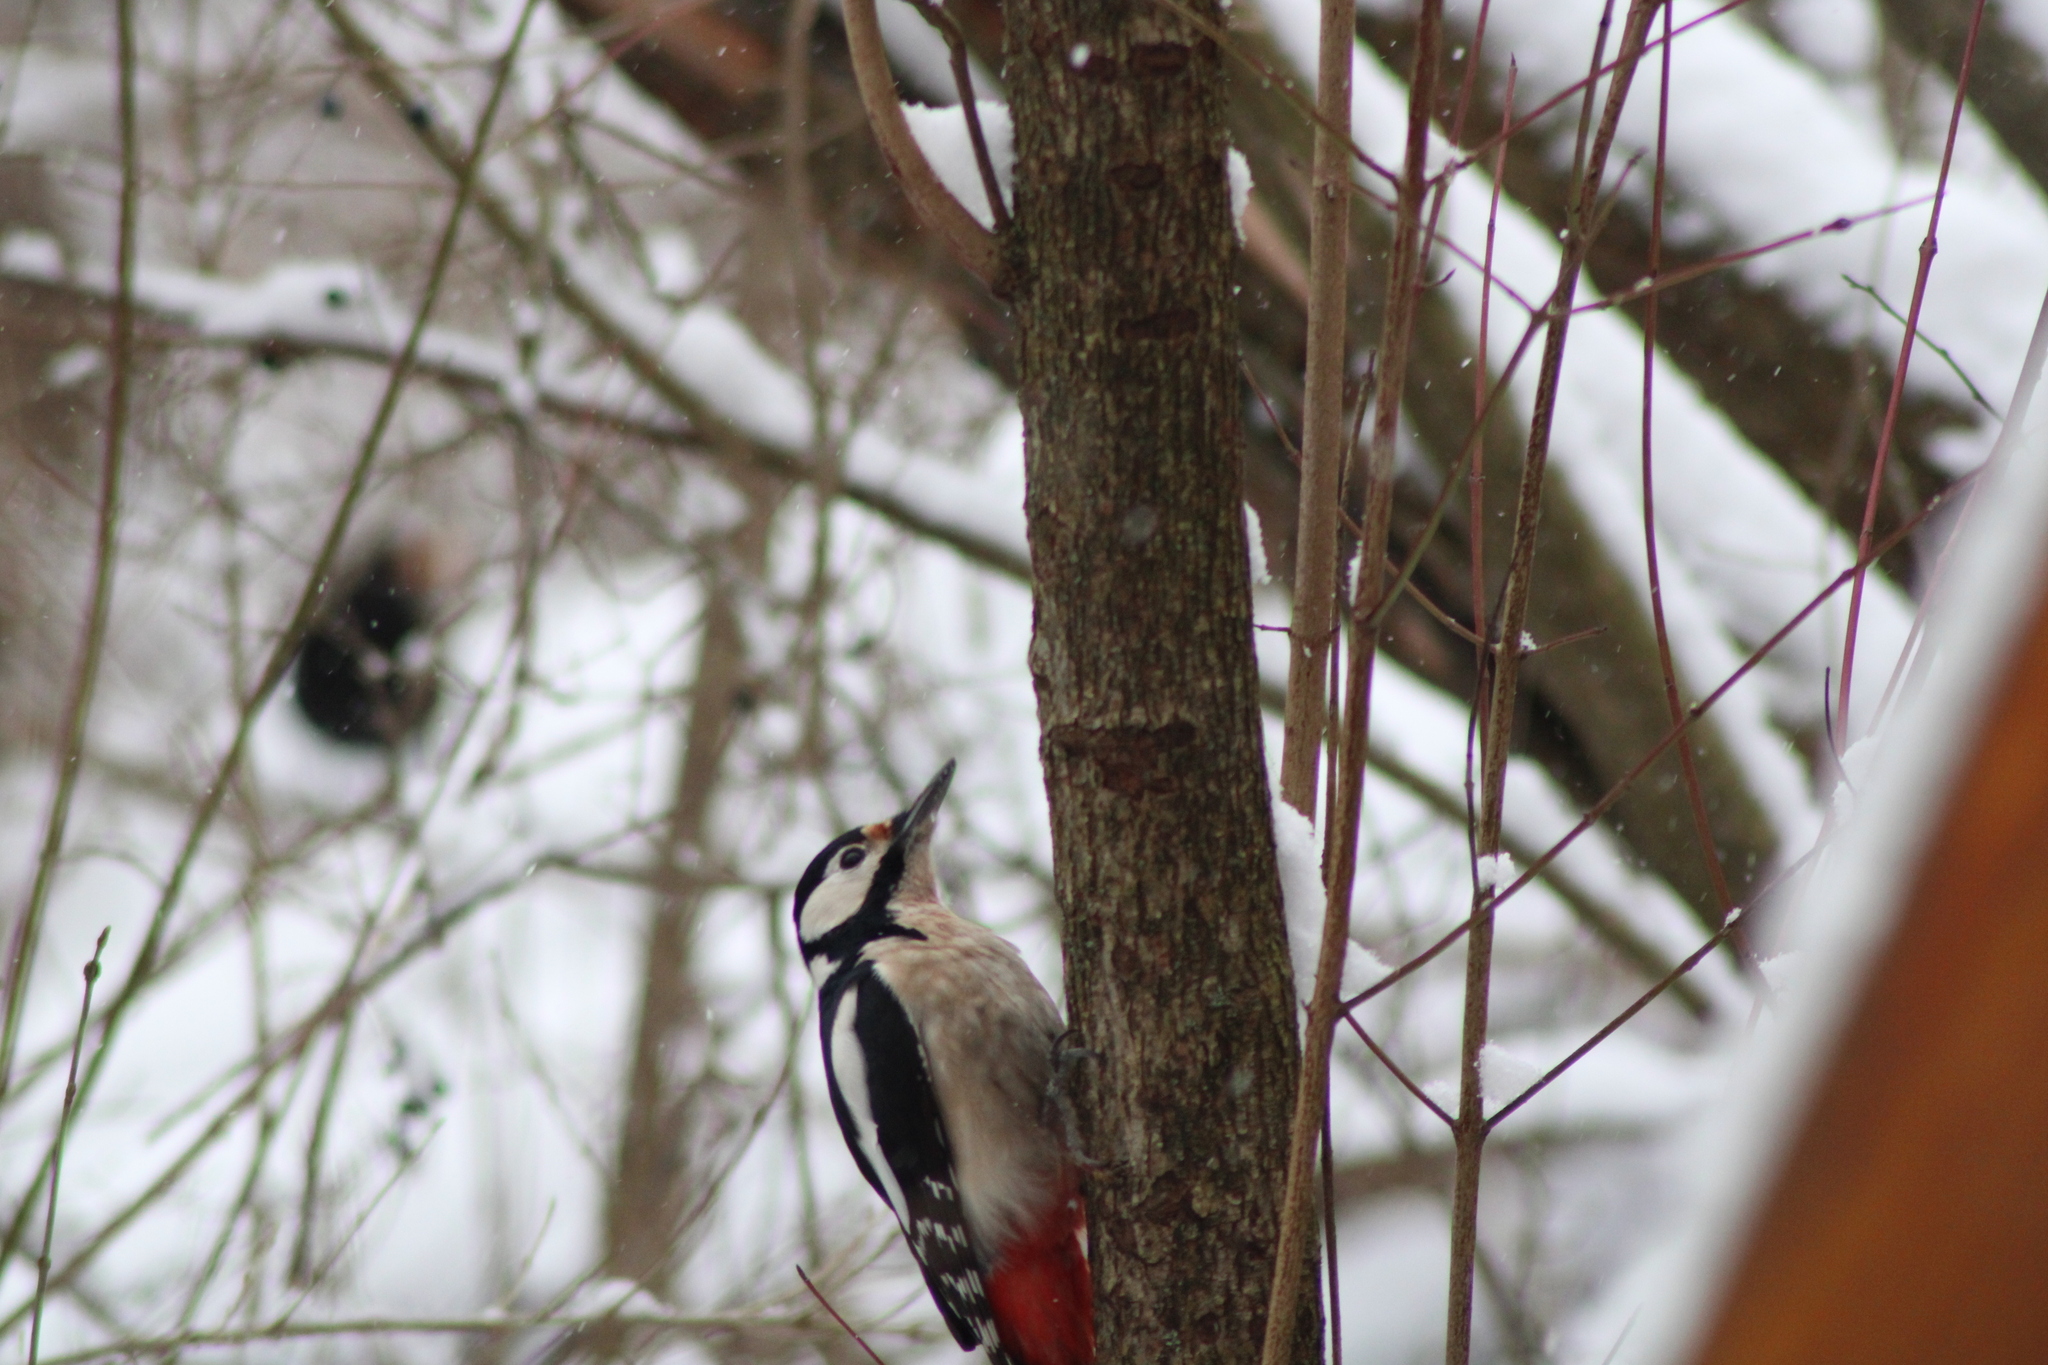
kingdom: Animalia
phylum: Chordata
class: Aves
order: Piciformes
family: Picidae
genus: Dendrocopos
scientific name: Dendrocopos major
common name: Great spotted woodpecker
